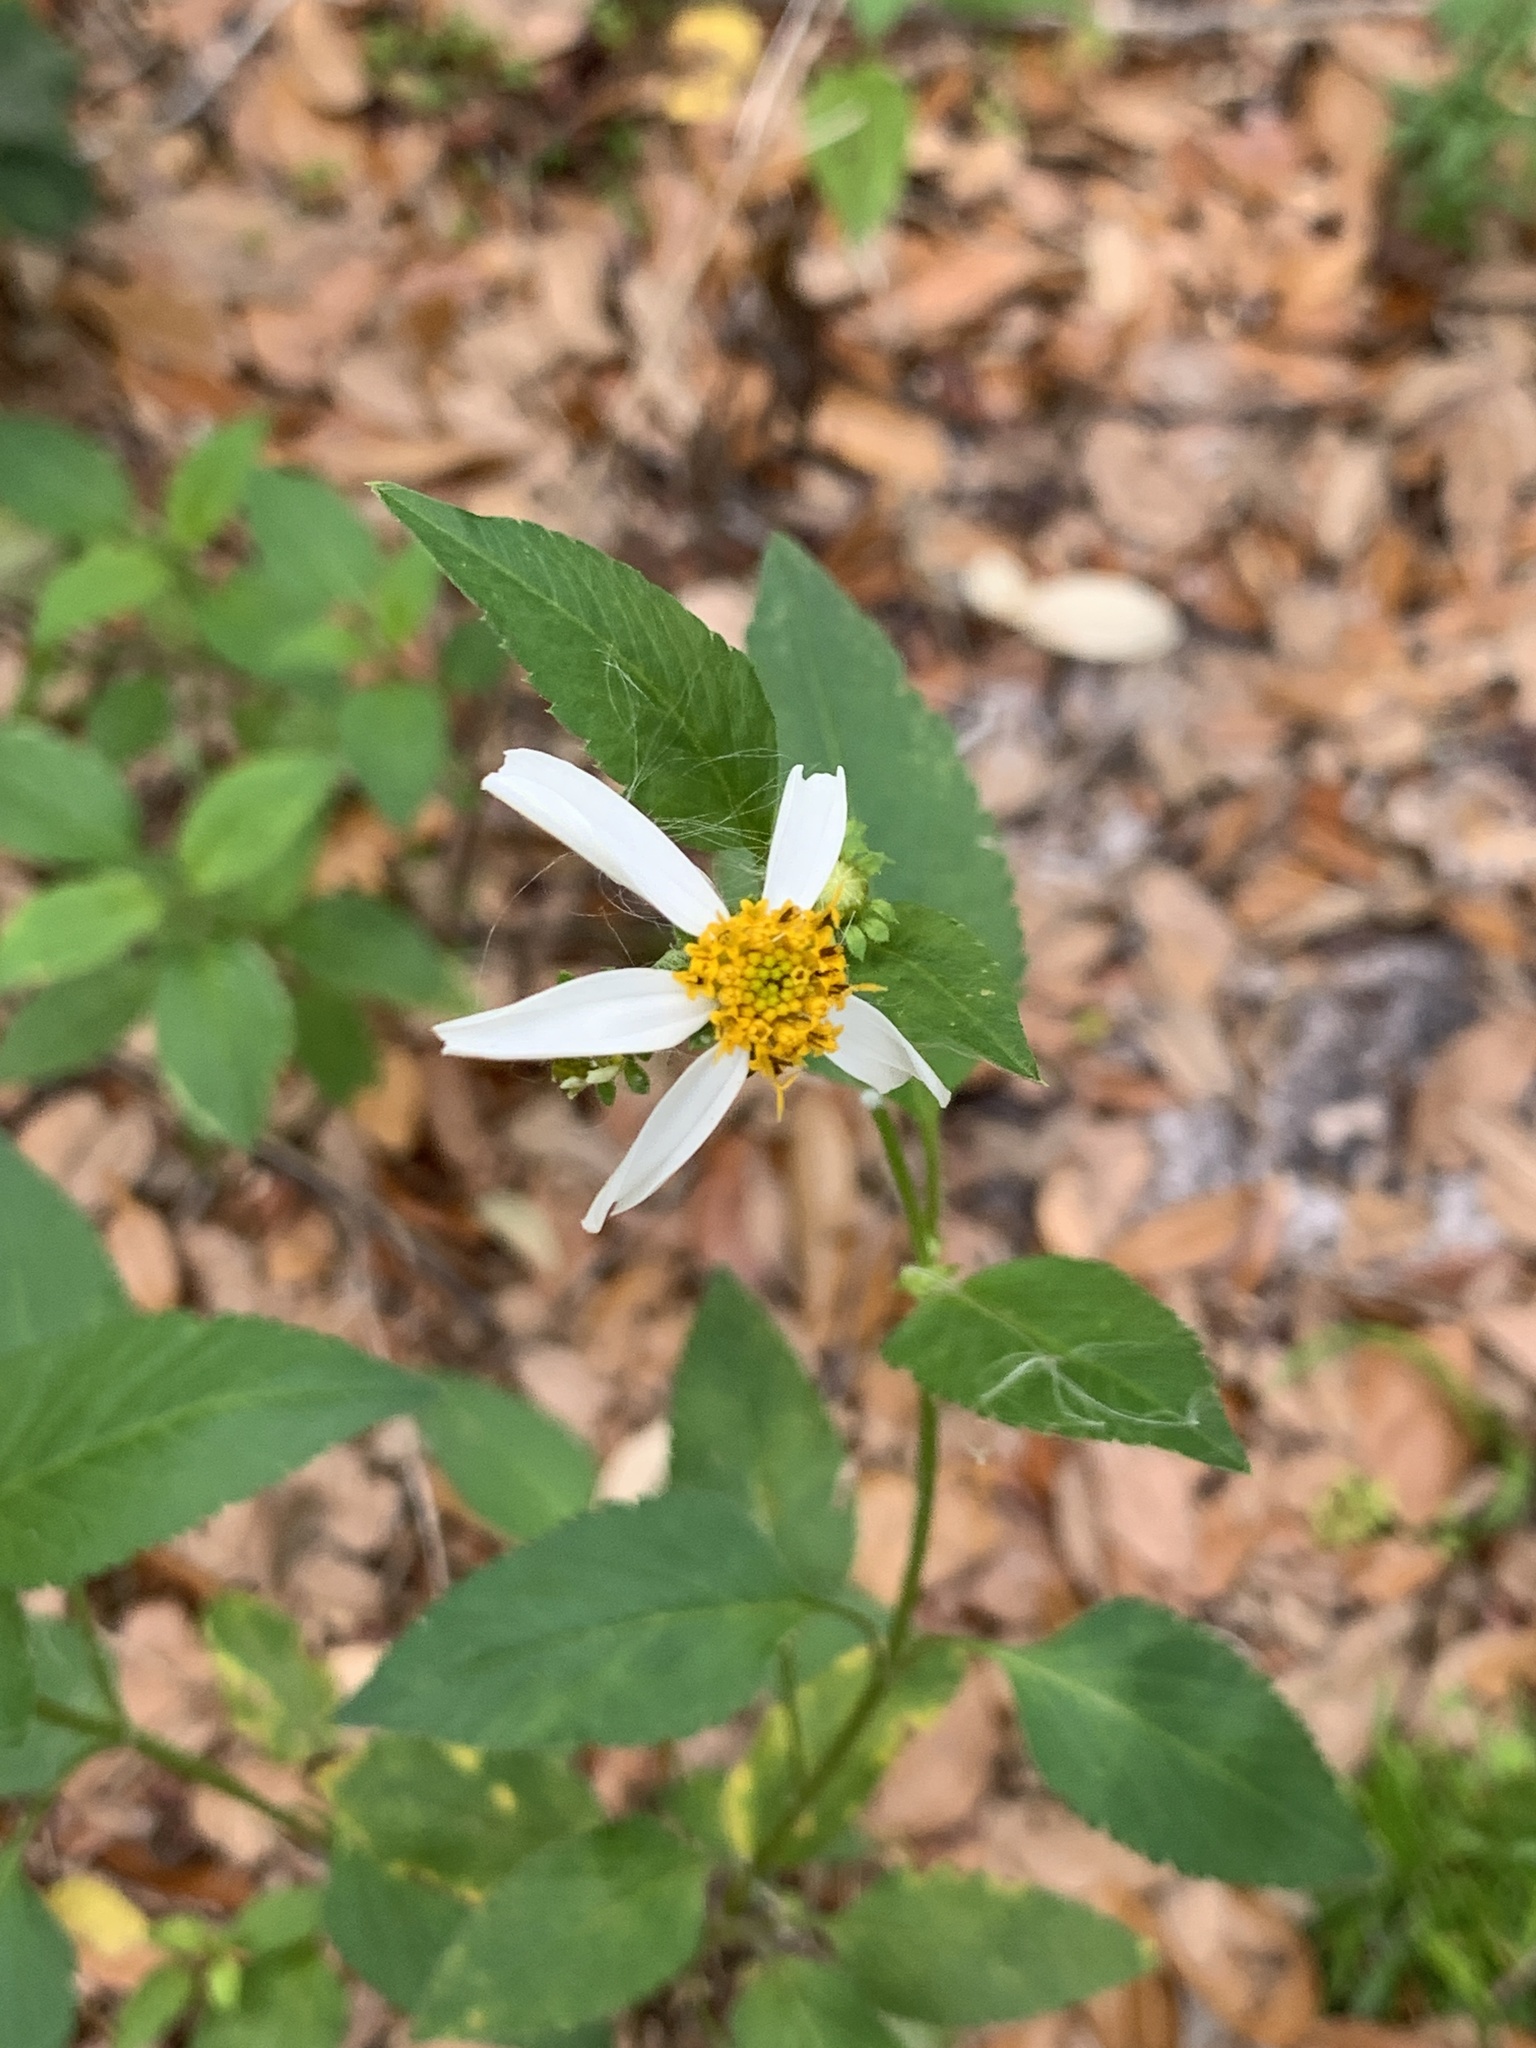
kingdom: Plantae
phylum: Tracheophyta
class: Magnoliopsida
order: Asterales
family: Asteraceae
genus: Bidens
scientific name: Bidens alba
